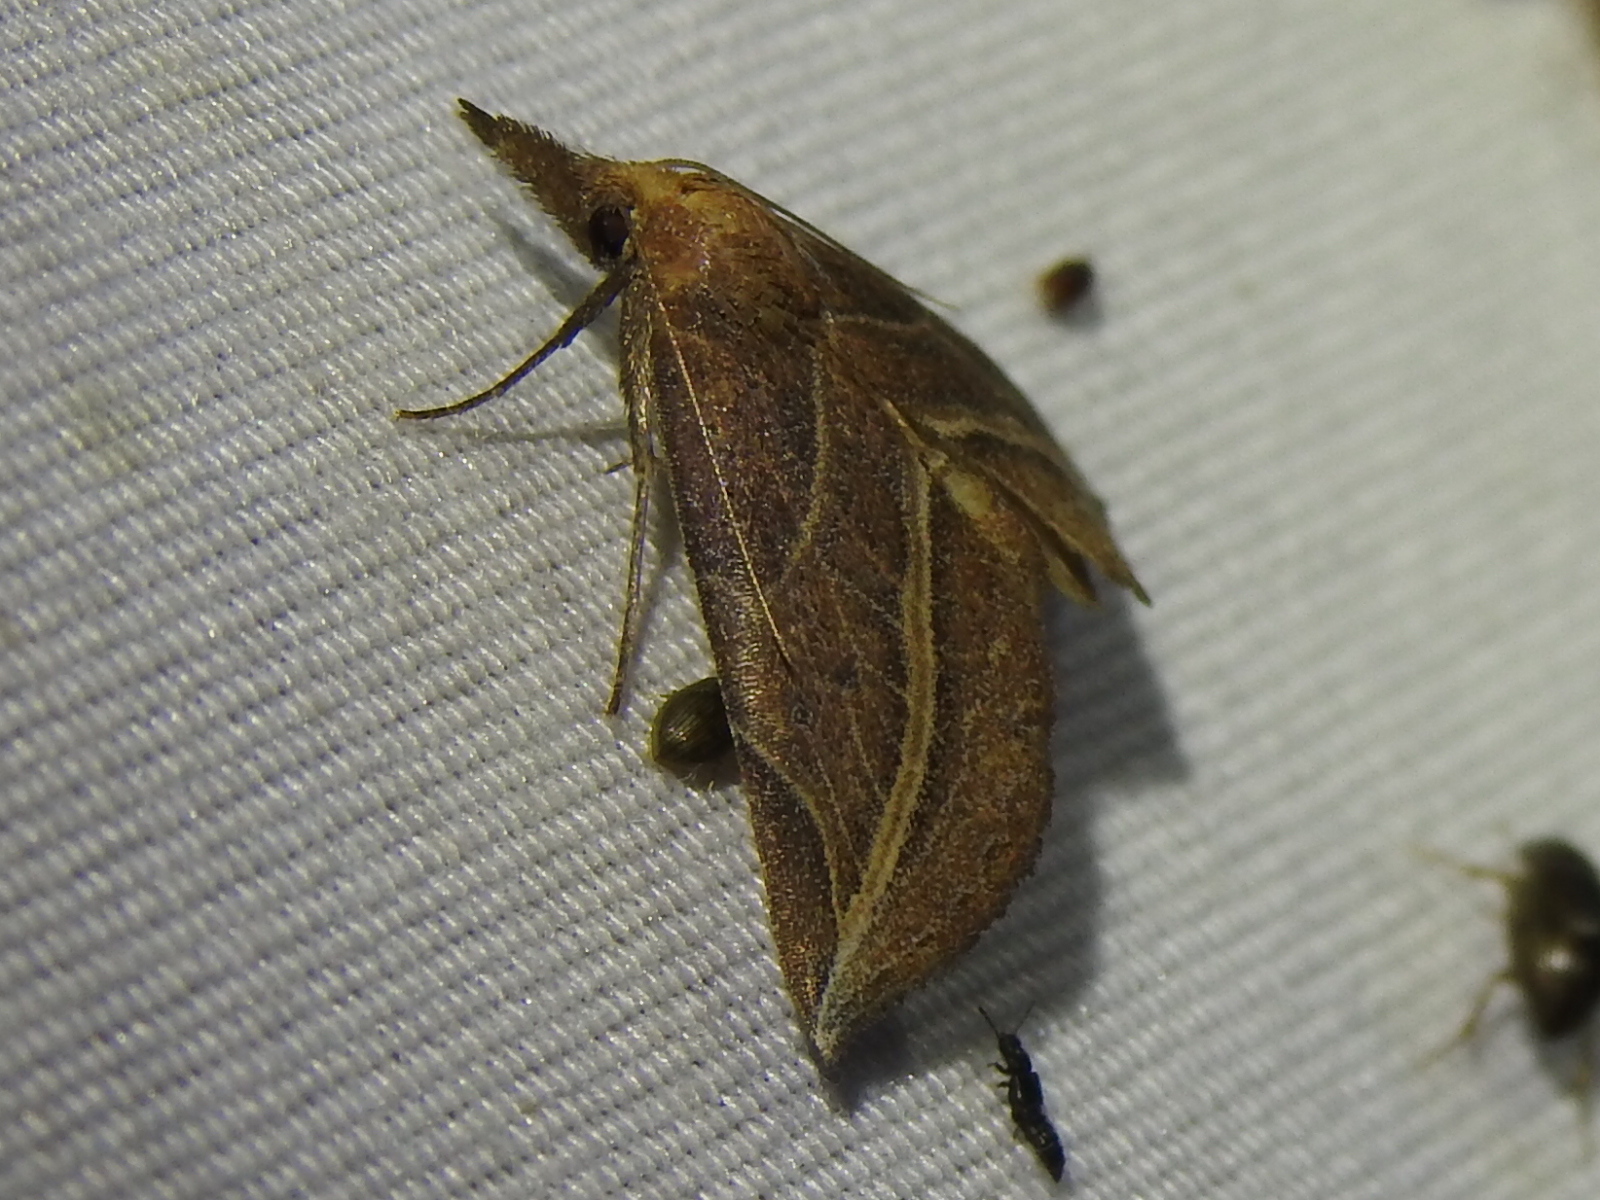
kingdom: Animalia
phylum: Arthropoda
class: Insecta
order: Lepidoptera
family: Erebidae
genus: Phyprosopus
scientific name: Phyprosopus callitrichoides
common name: Curved-lined owlet
